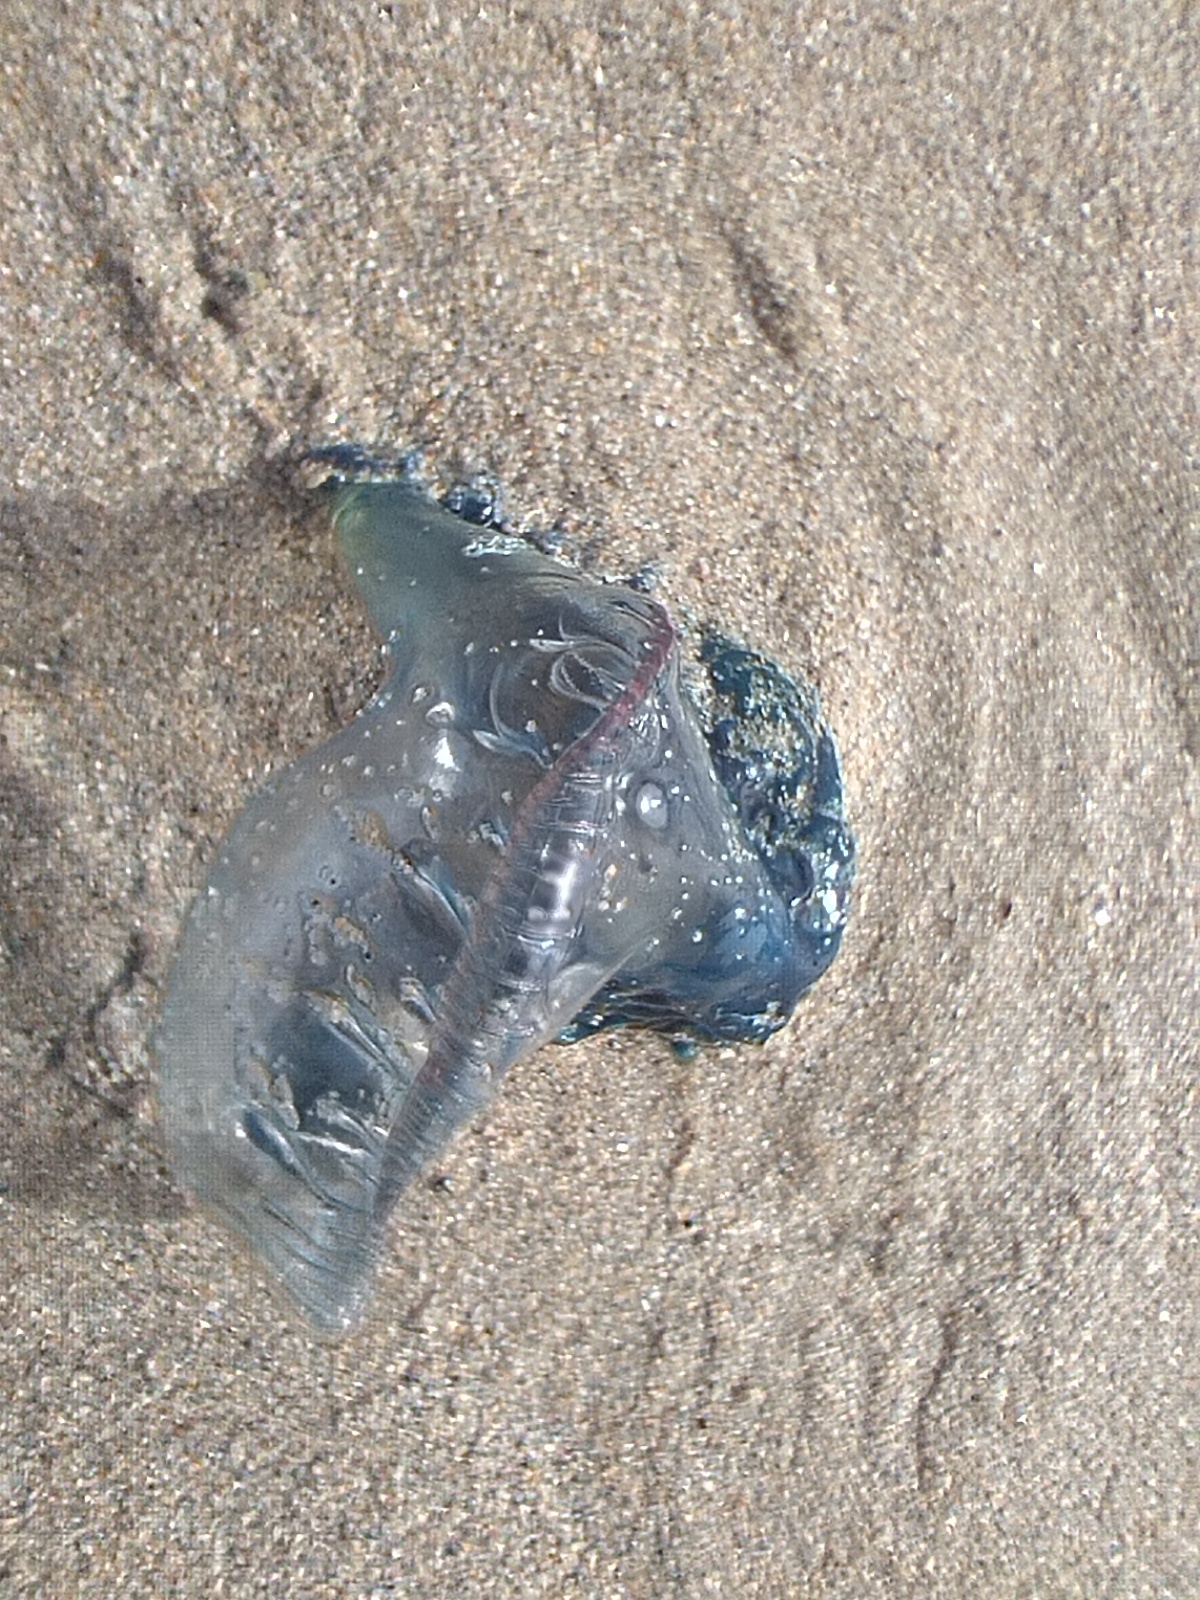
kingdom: Animalia
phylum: Cnidaria
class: Hydrozoa
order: Siphonophorae
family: Physaliidae
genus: Physalia
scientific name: Physalia physalis
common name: Portuguese man-of-war
